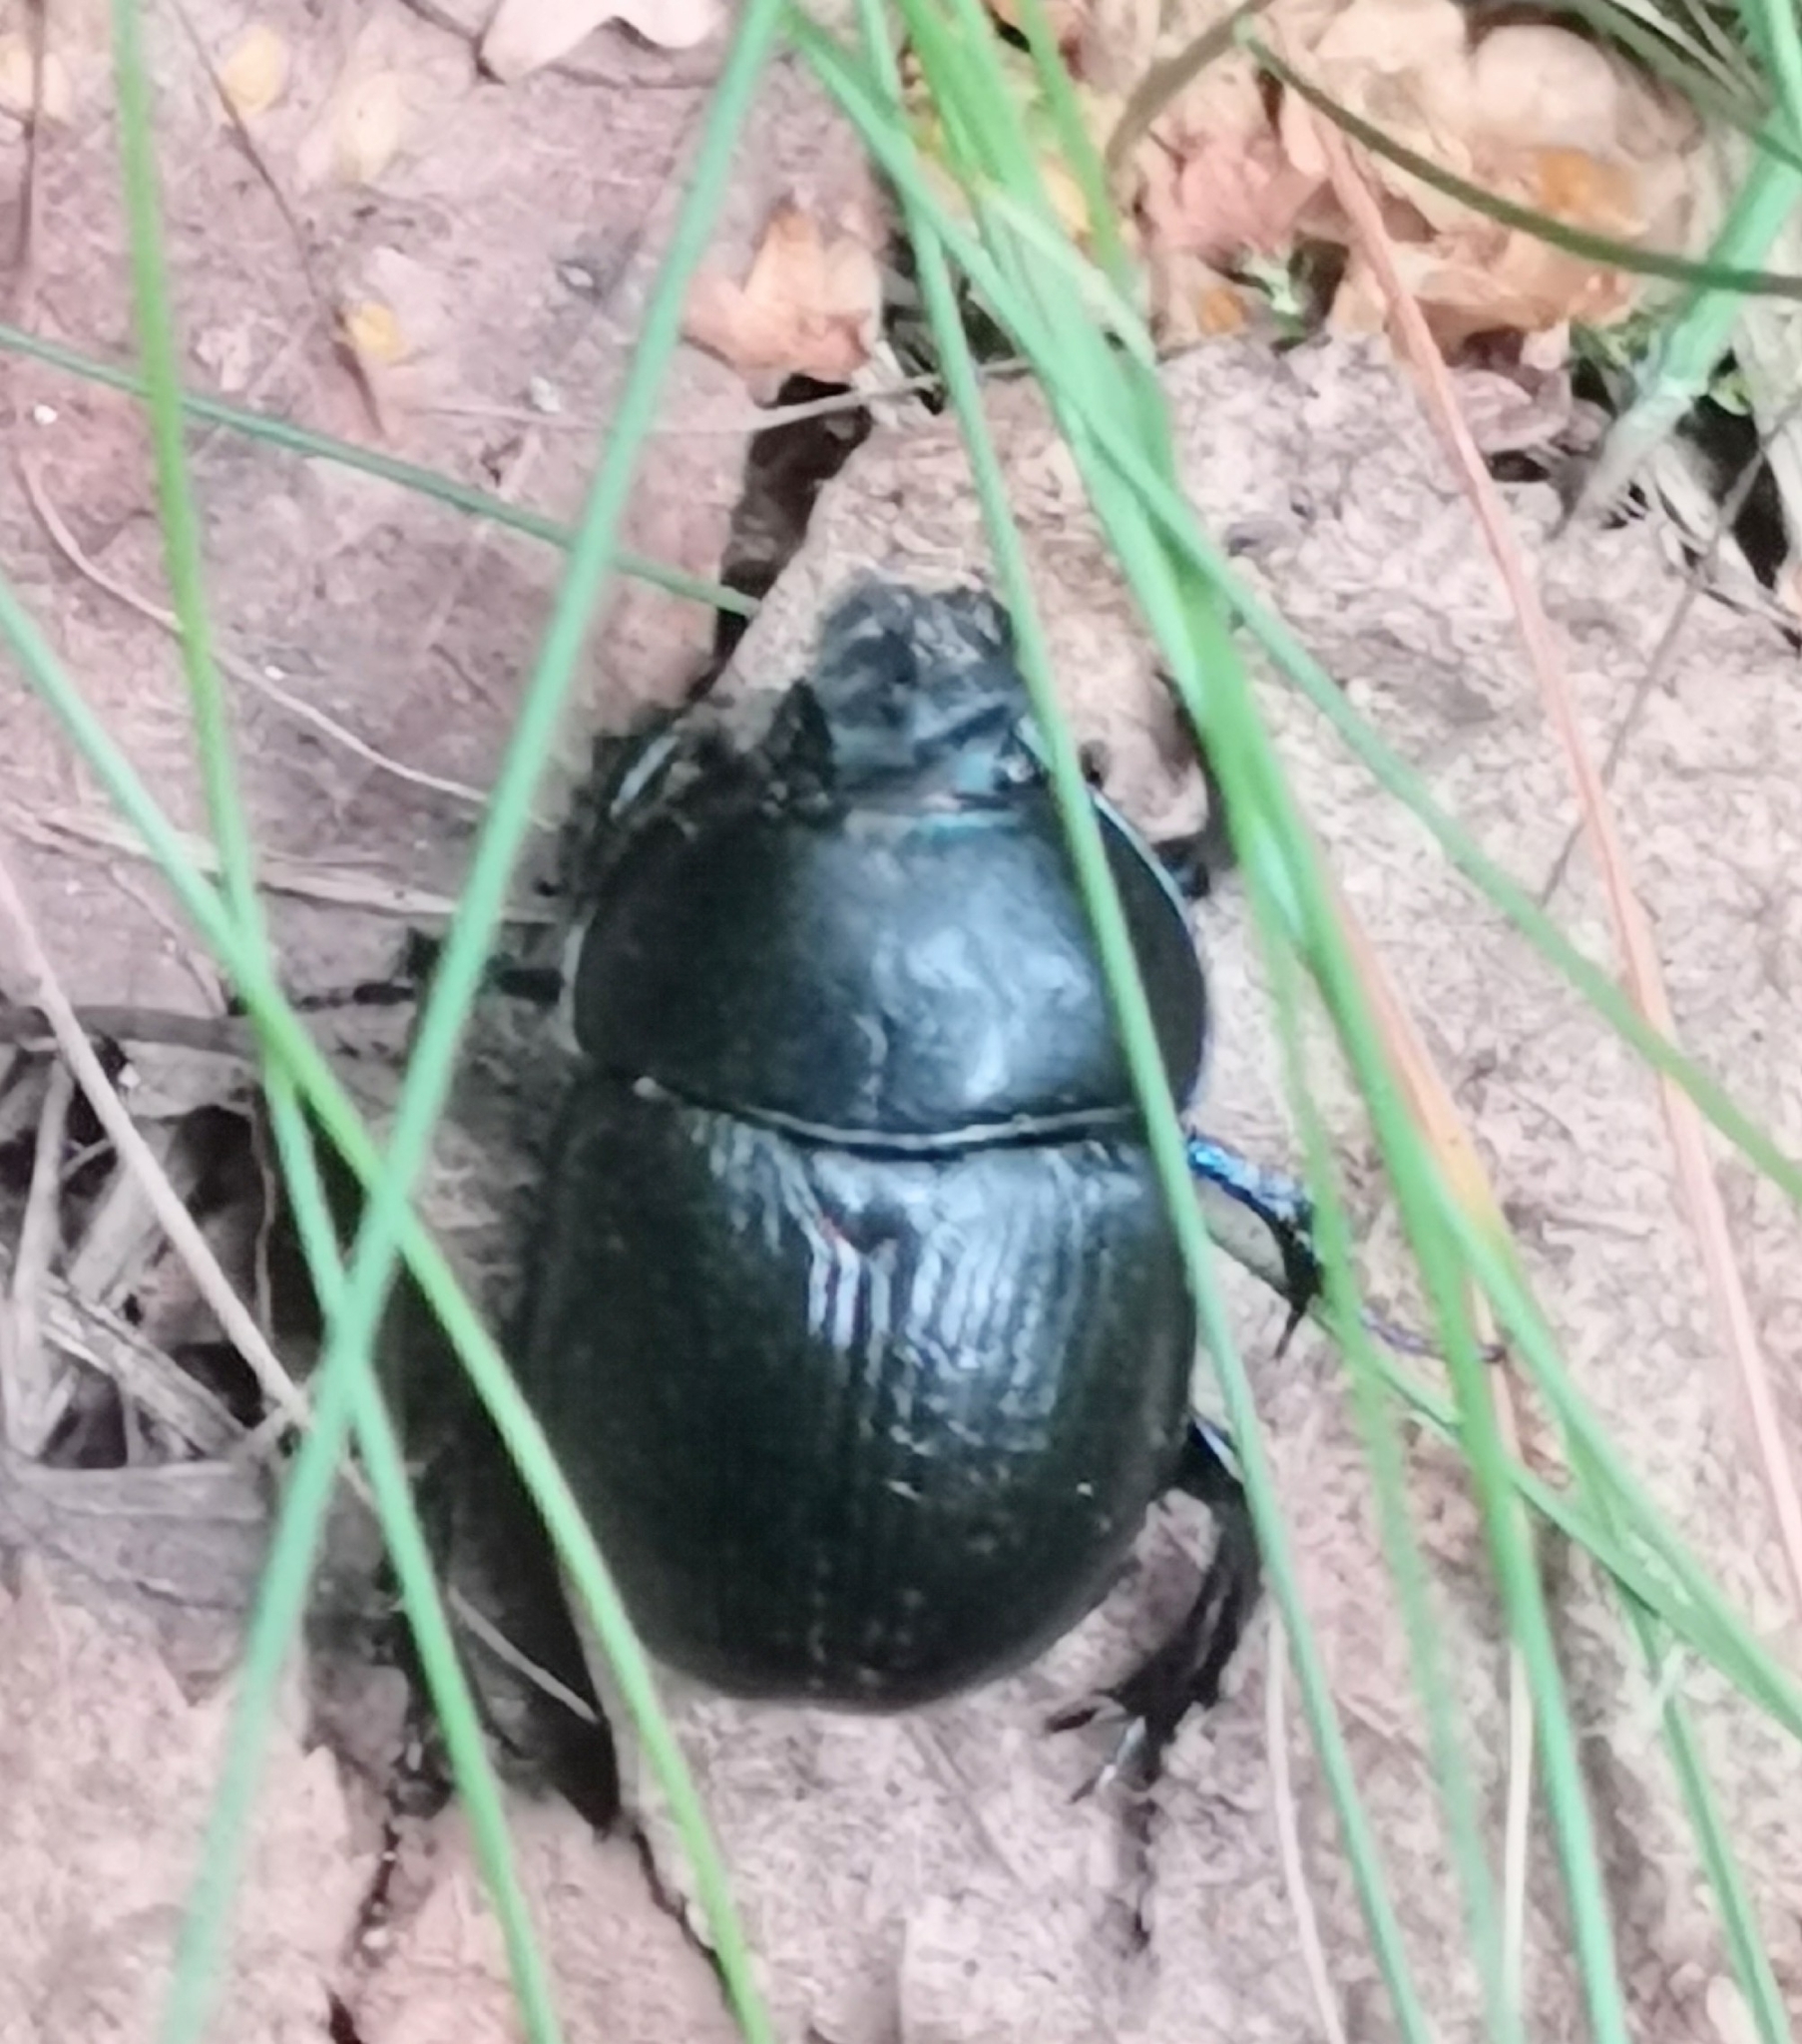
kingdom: Animalia
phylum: Arthropoda
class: Insecta
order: Coleoptera
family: Geotrupidae
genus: Anoplotrupes
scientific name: Anoplotrupes stercorosus
